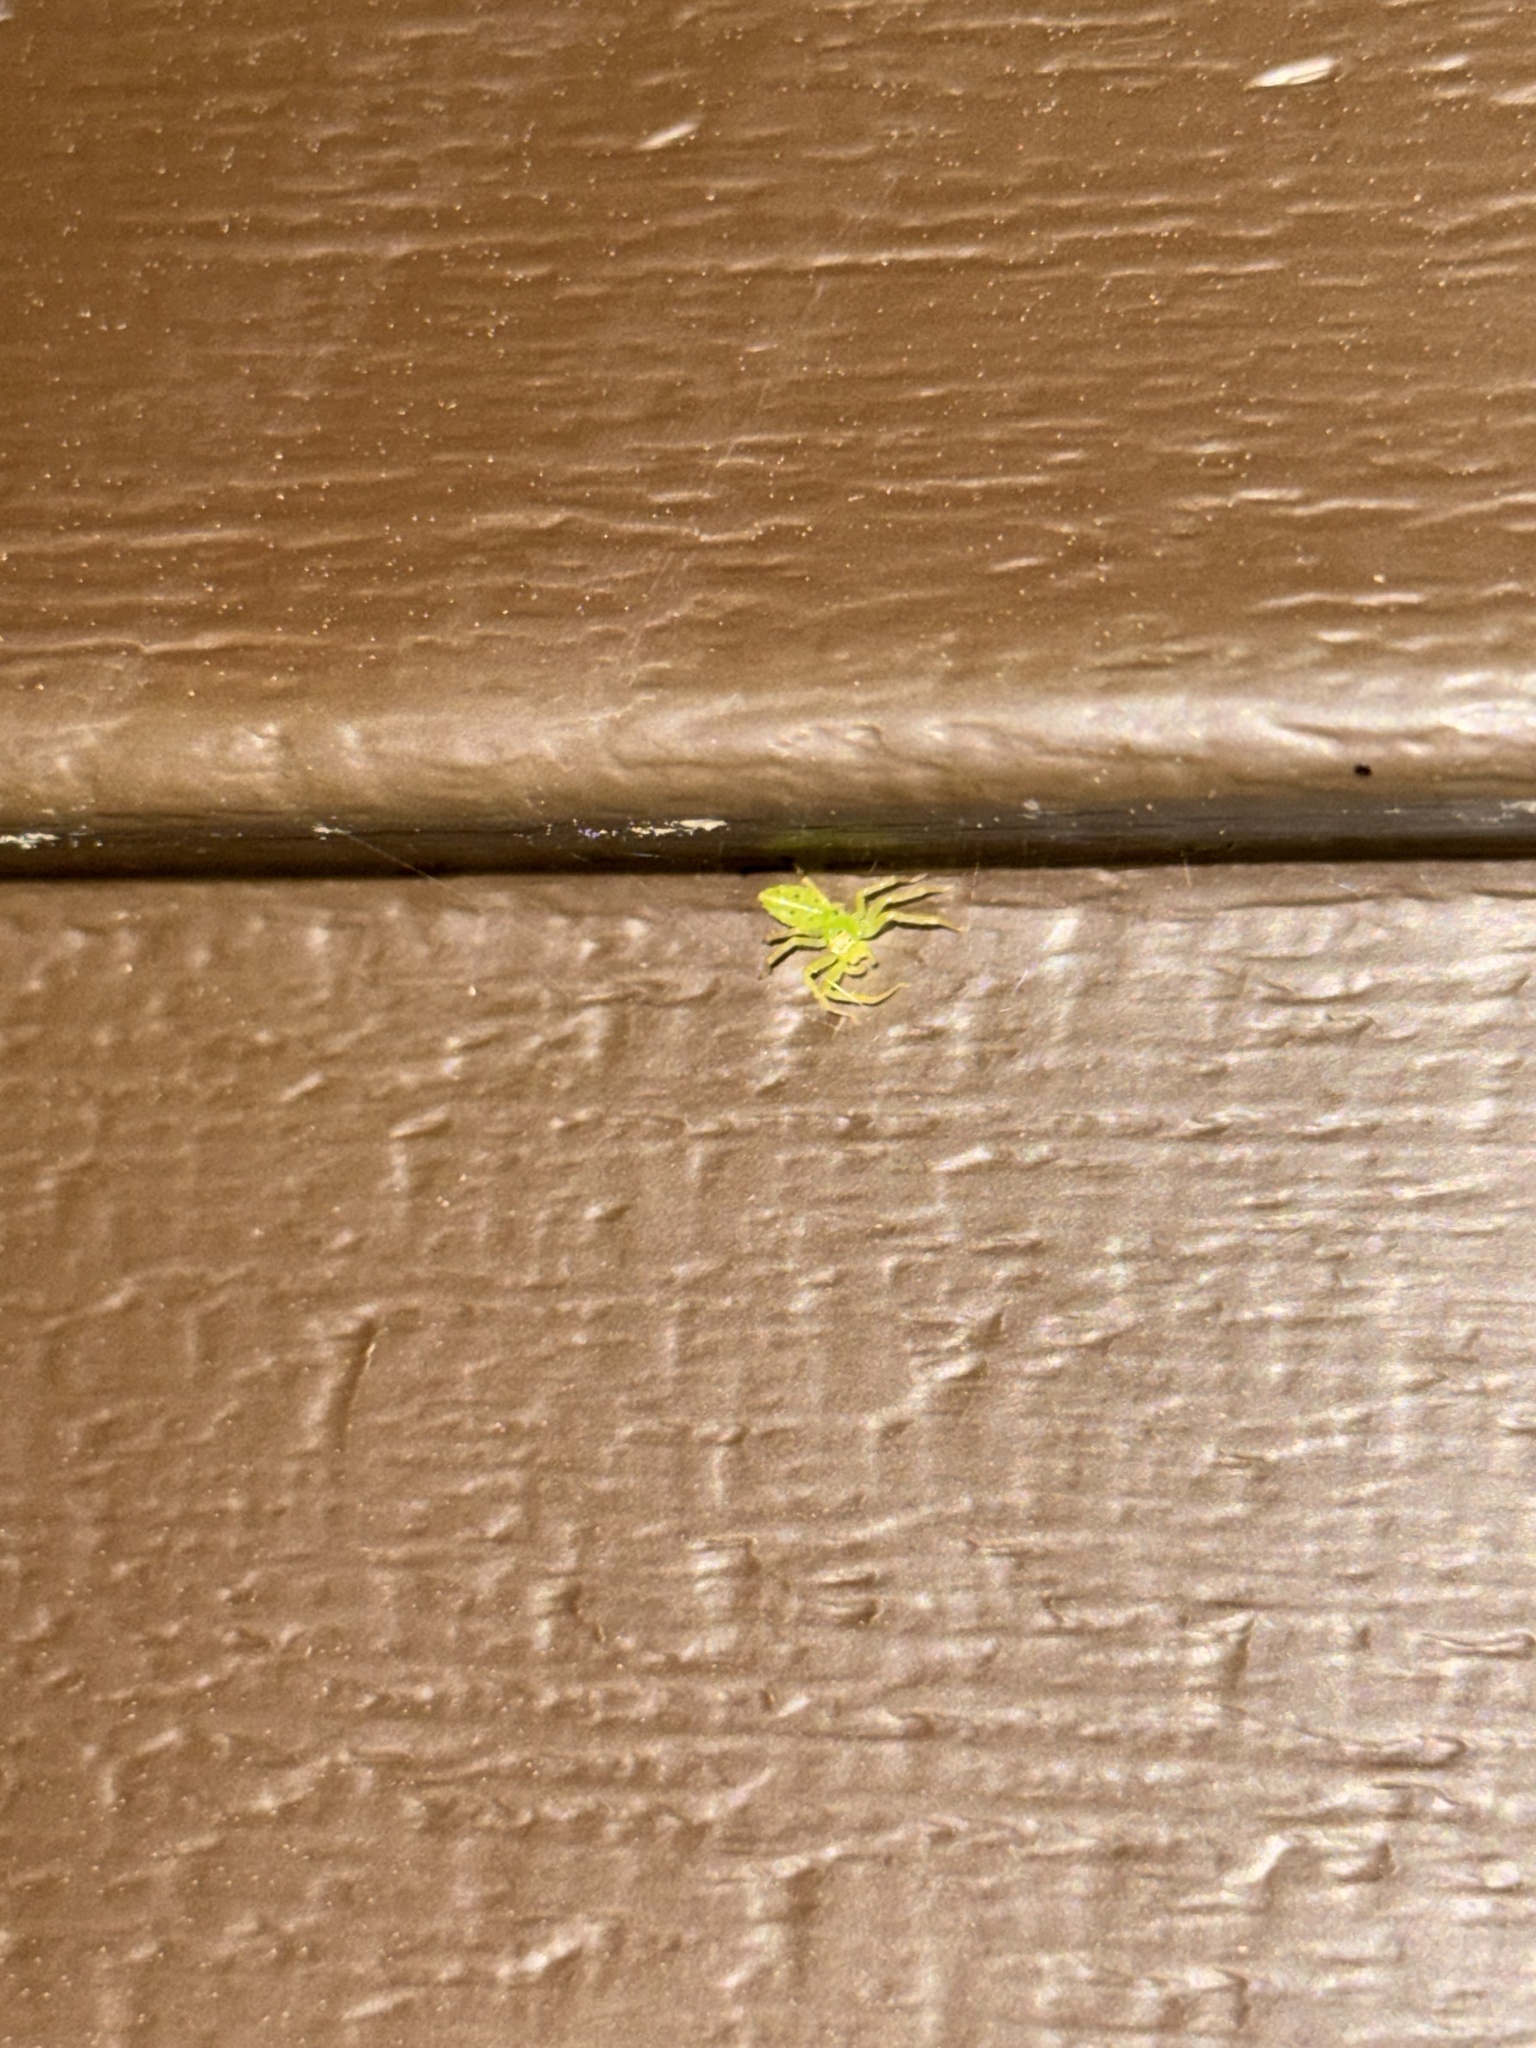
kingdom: Animalia
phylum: Arthropoda
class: Arachnida
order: Araneae
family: Salticidae
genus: Lyssomanes
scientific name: Lyssomanes viridis
